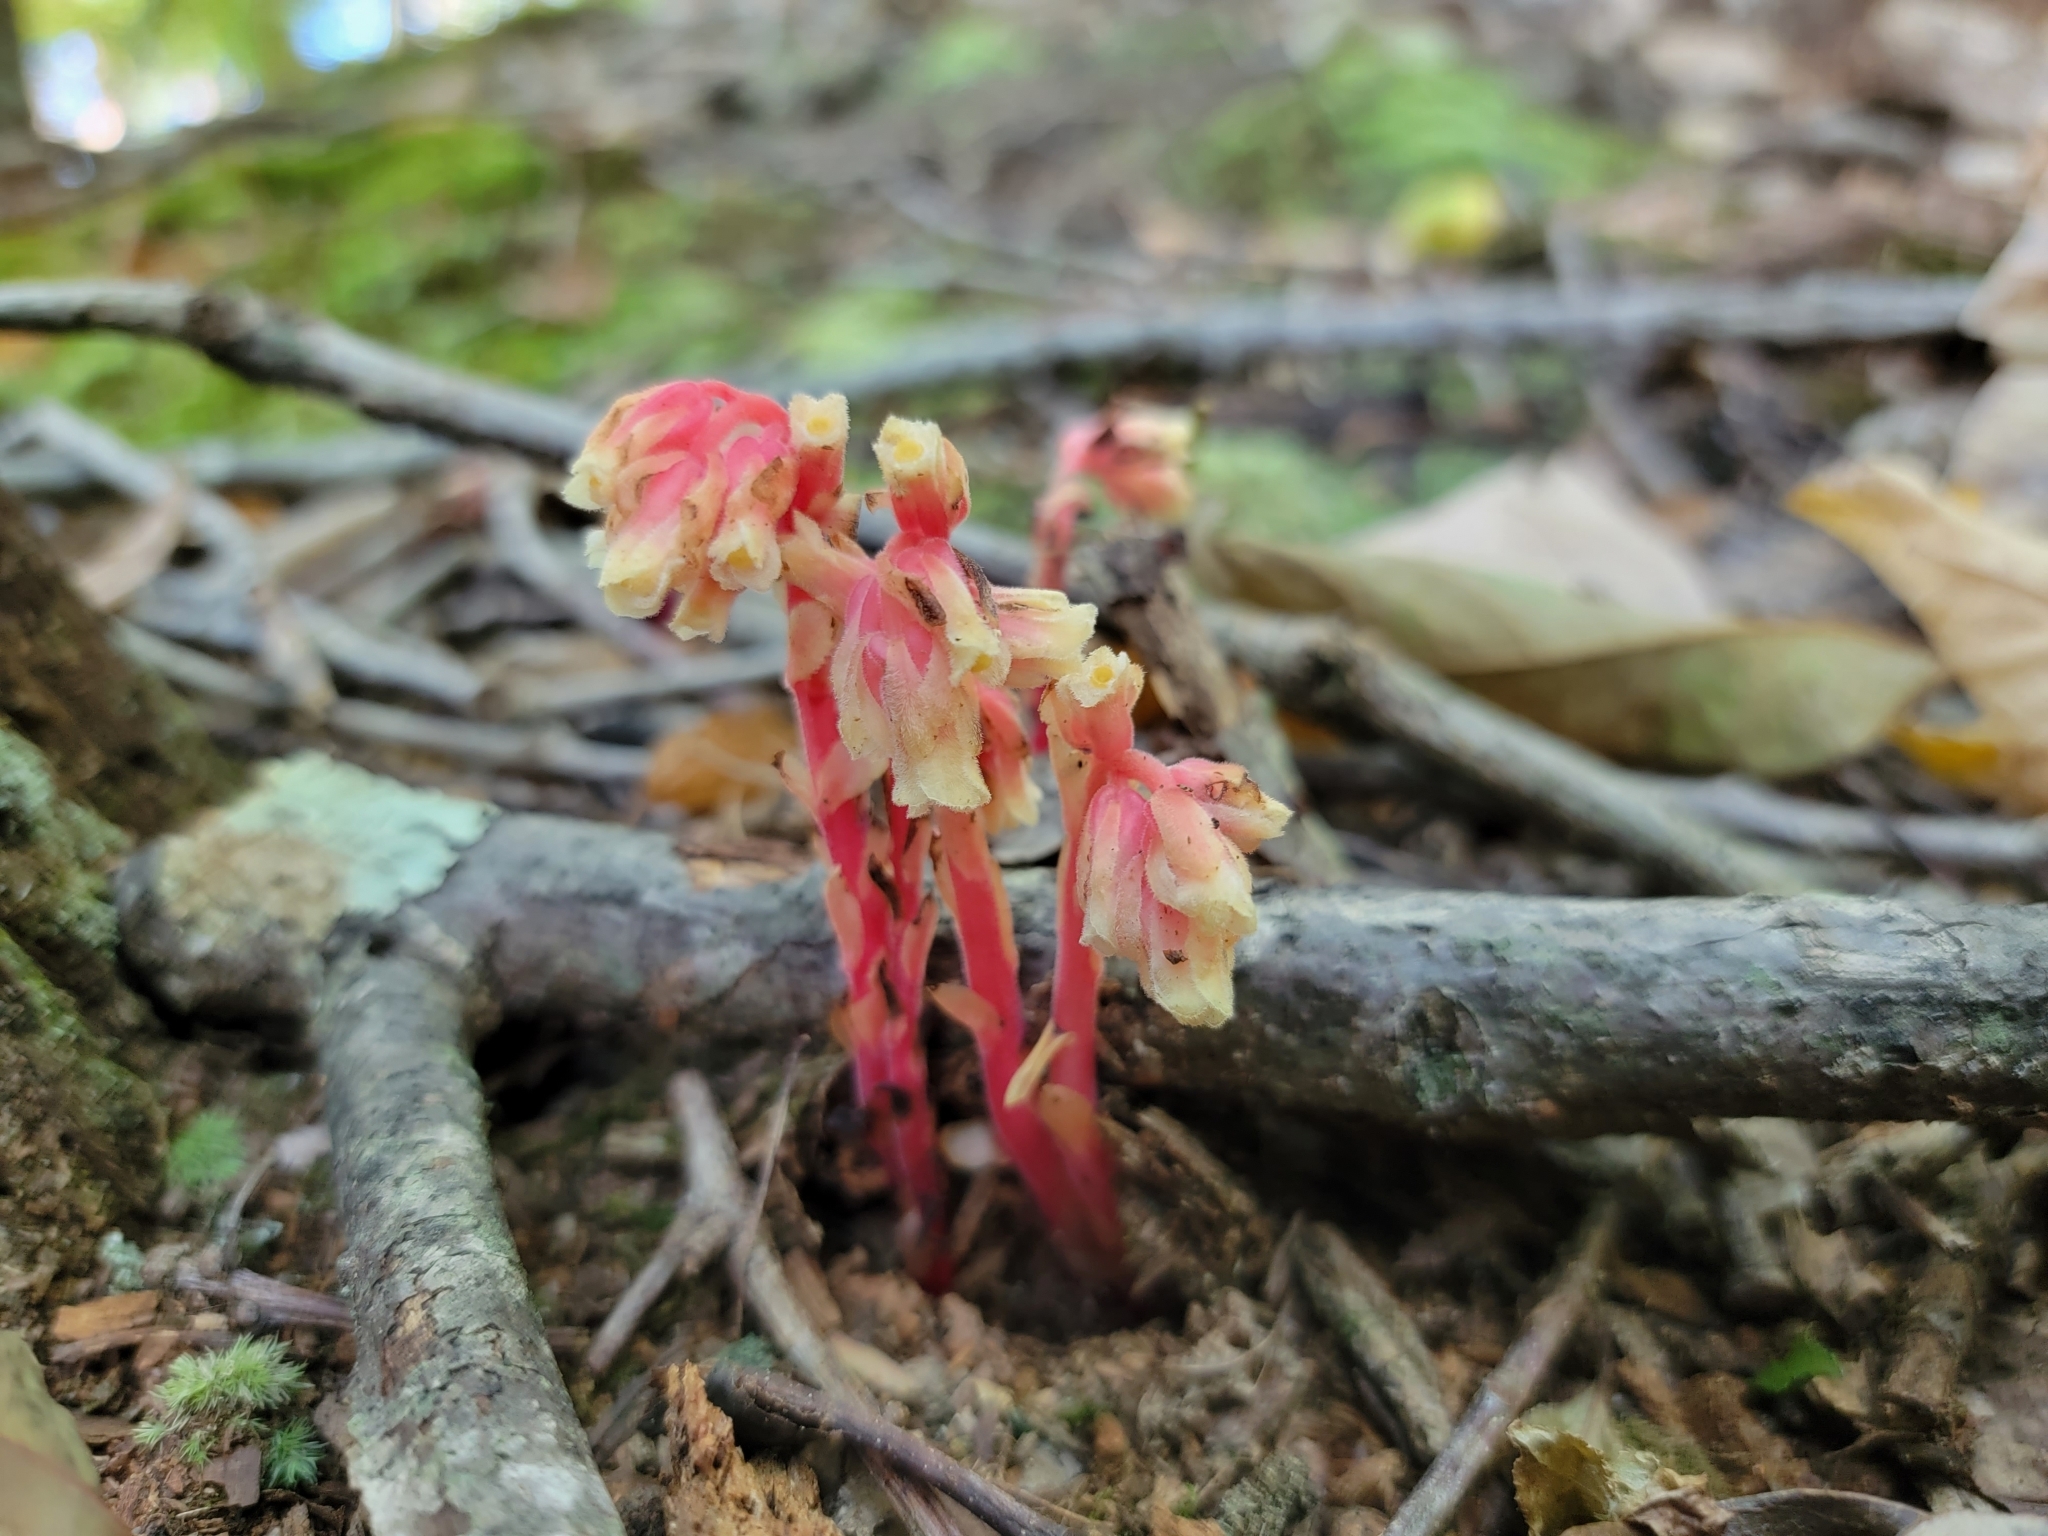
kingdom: Plantae
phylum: Tracheophyta
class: Magnoliopsida
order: Ericales
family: Ericaceae
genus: Hypopitys
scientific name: Hypopitys monotropa
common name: Yellow bird's-nest
